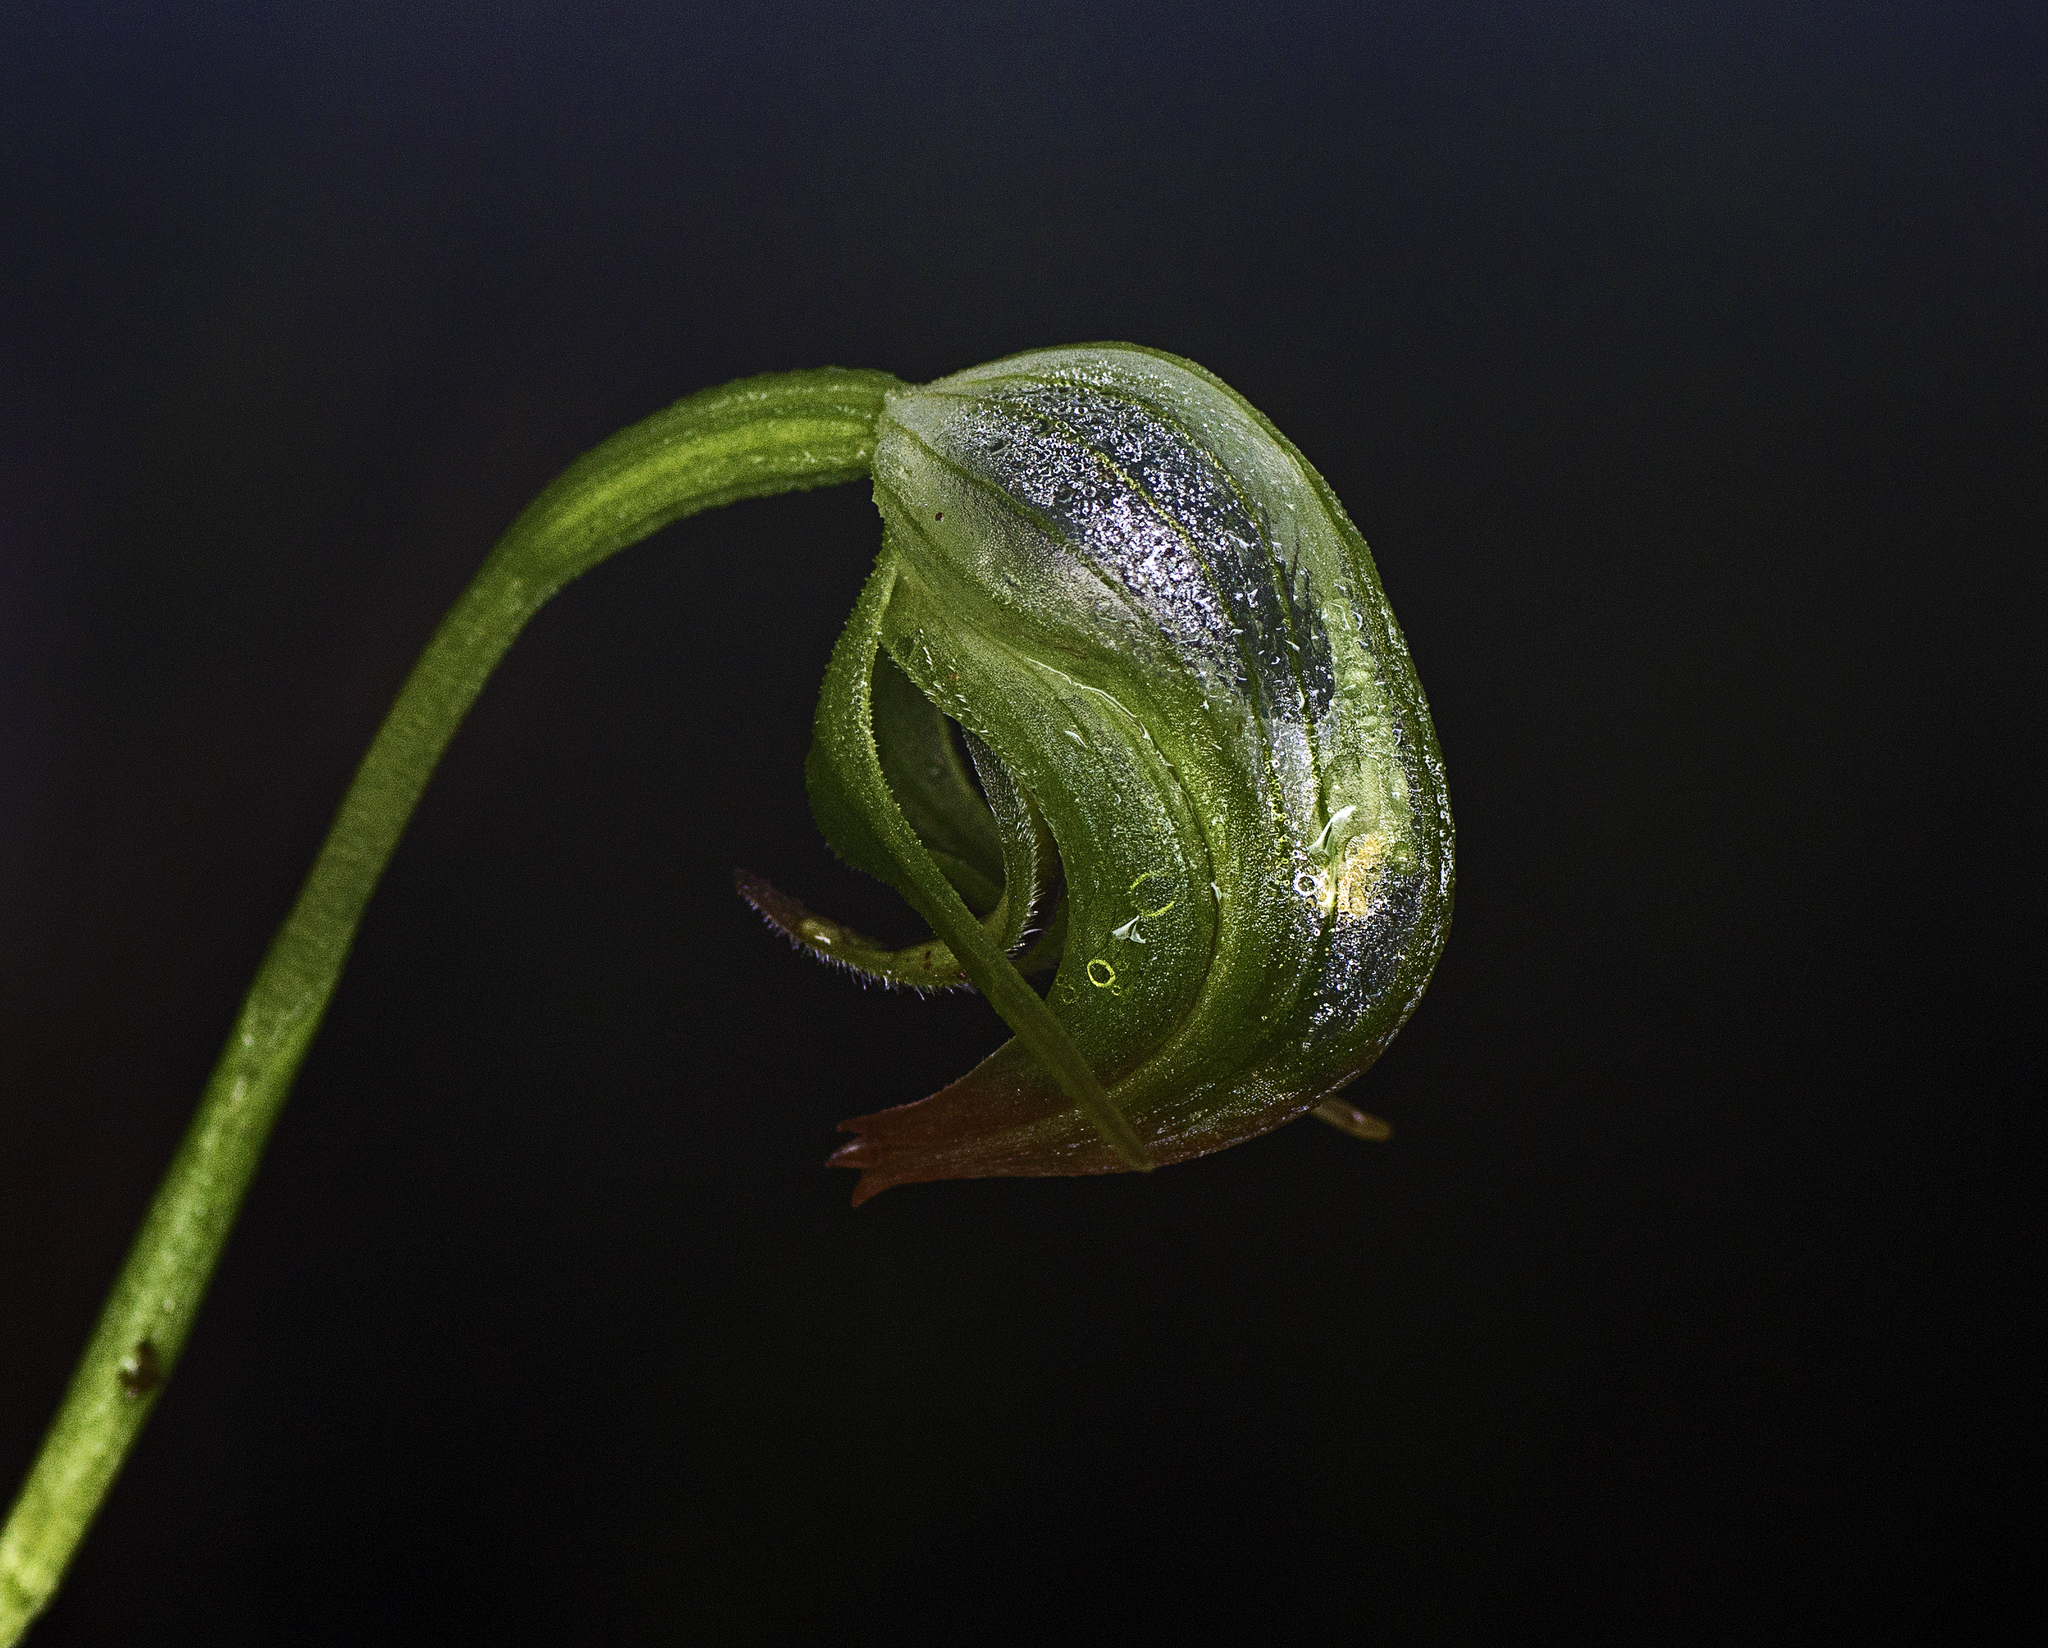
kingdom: Plantae
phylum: Tracheophyta
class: Liliopsida
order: Asparagales
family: Orchidaceae
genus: Pterostylis
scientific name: Pterostylis nutans
